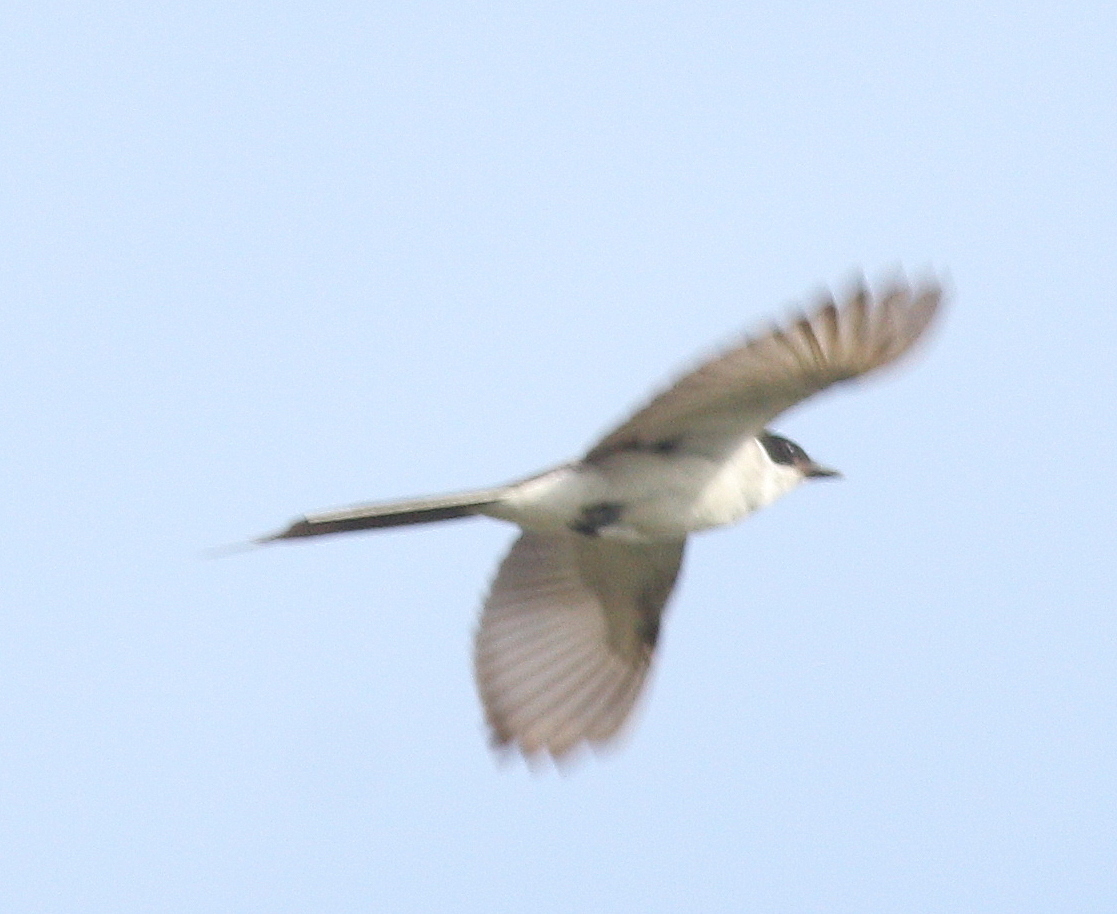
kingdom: Animalia
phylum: Chordata
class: Aves
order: Passeriformes
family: Tyrannidae
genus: Tyrannus
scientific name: Tyrannus savana
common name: Fork-tailed flycatcher
